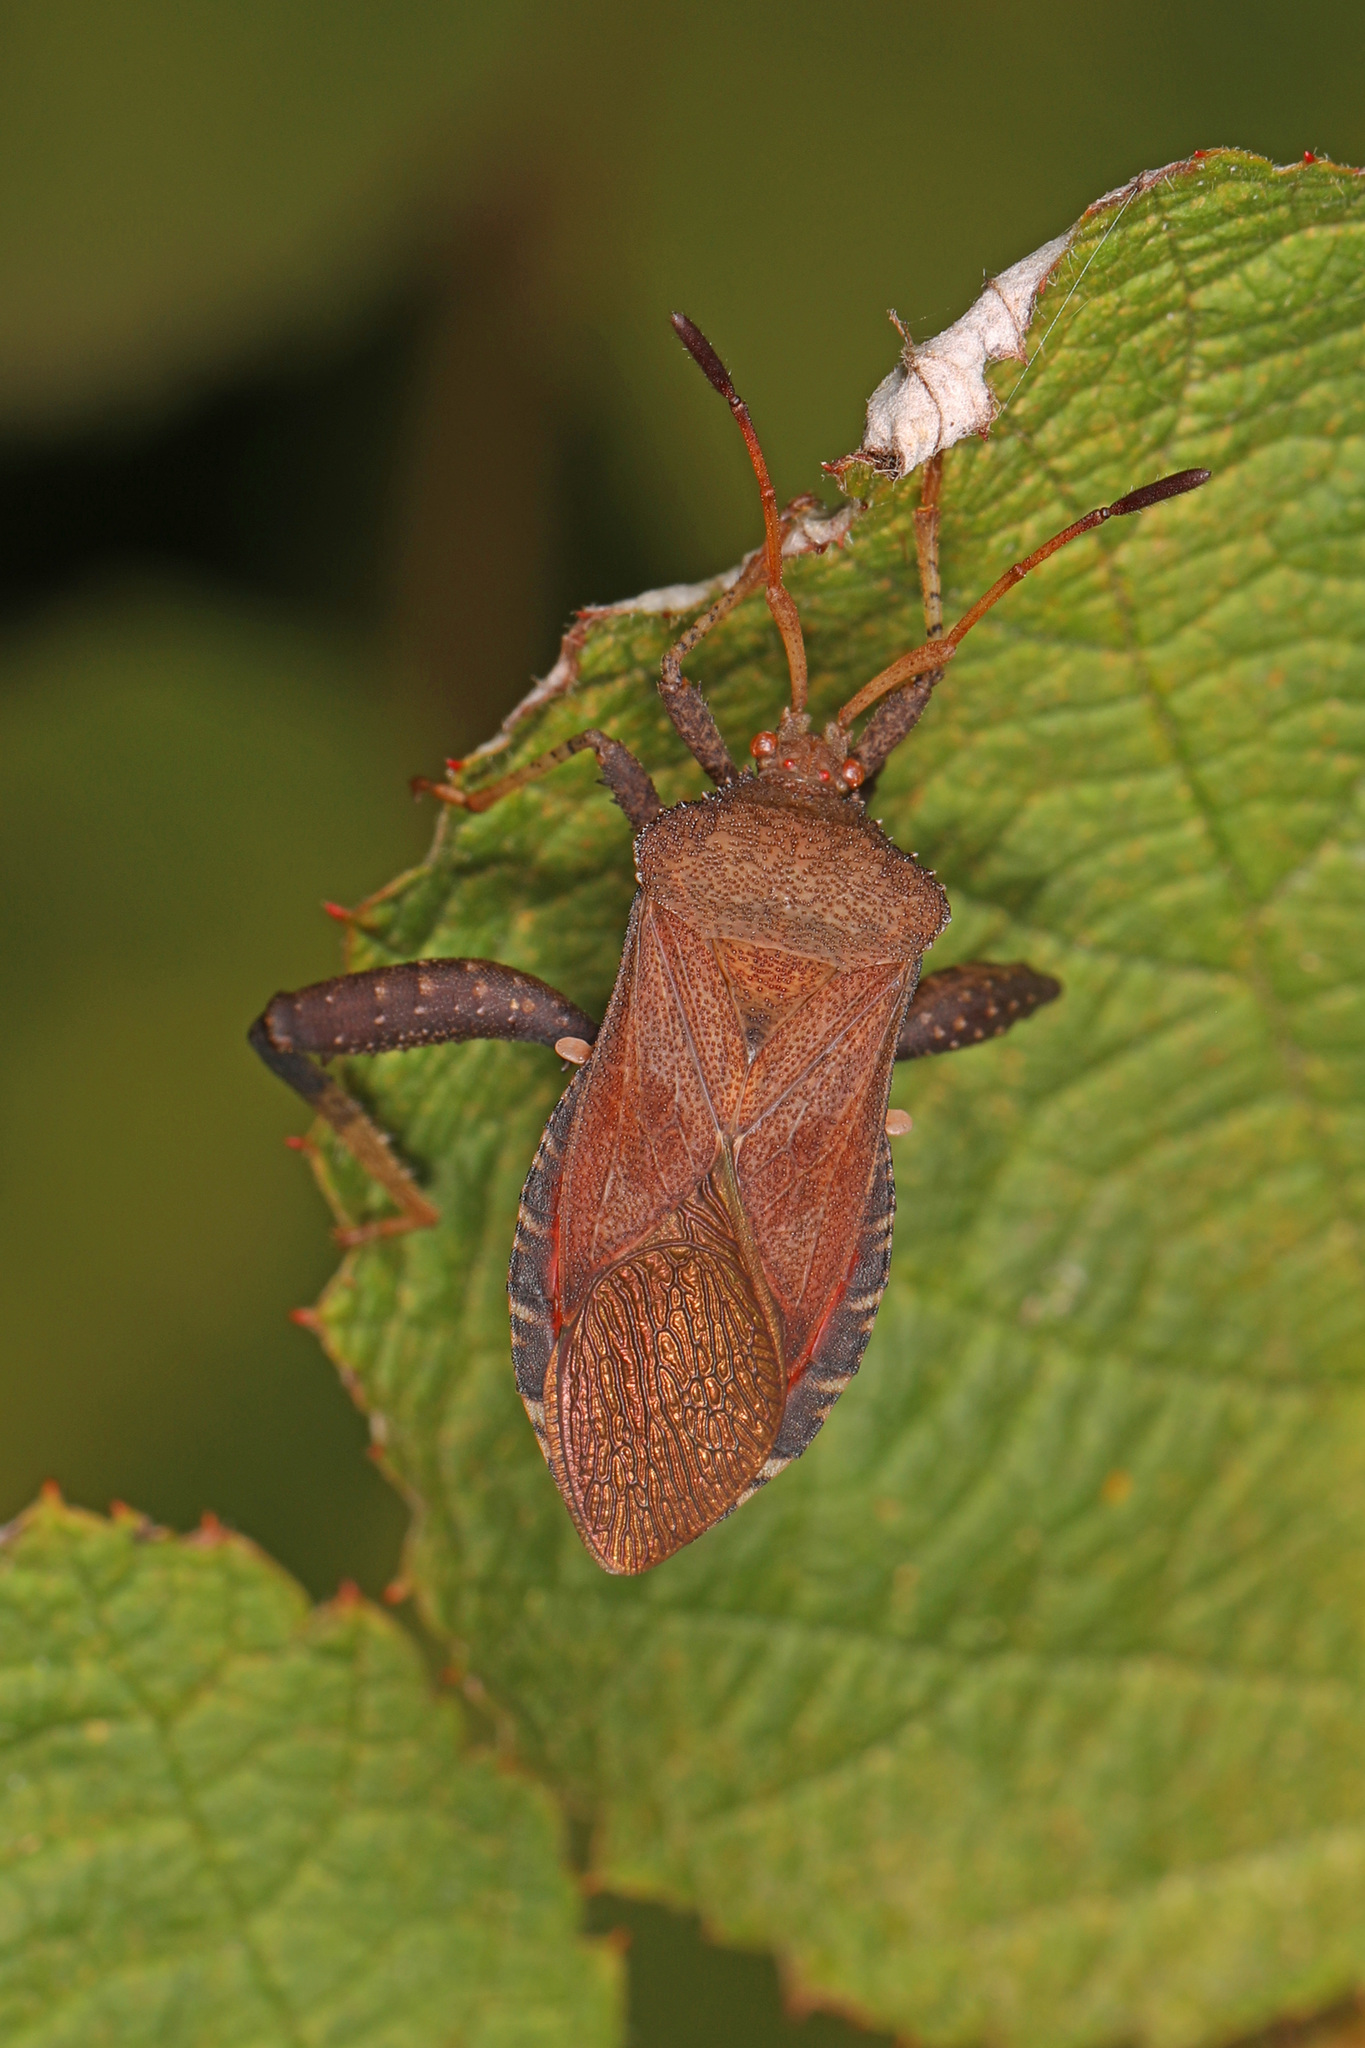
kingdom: Animalia
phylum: Arthropoda
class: Insecta
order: Hemiptera
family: Coreidae
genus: Euthochtha
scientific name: Euthochtha galeator
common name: Helmeted squash bug
